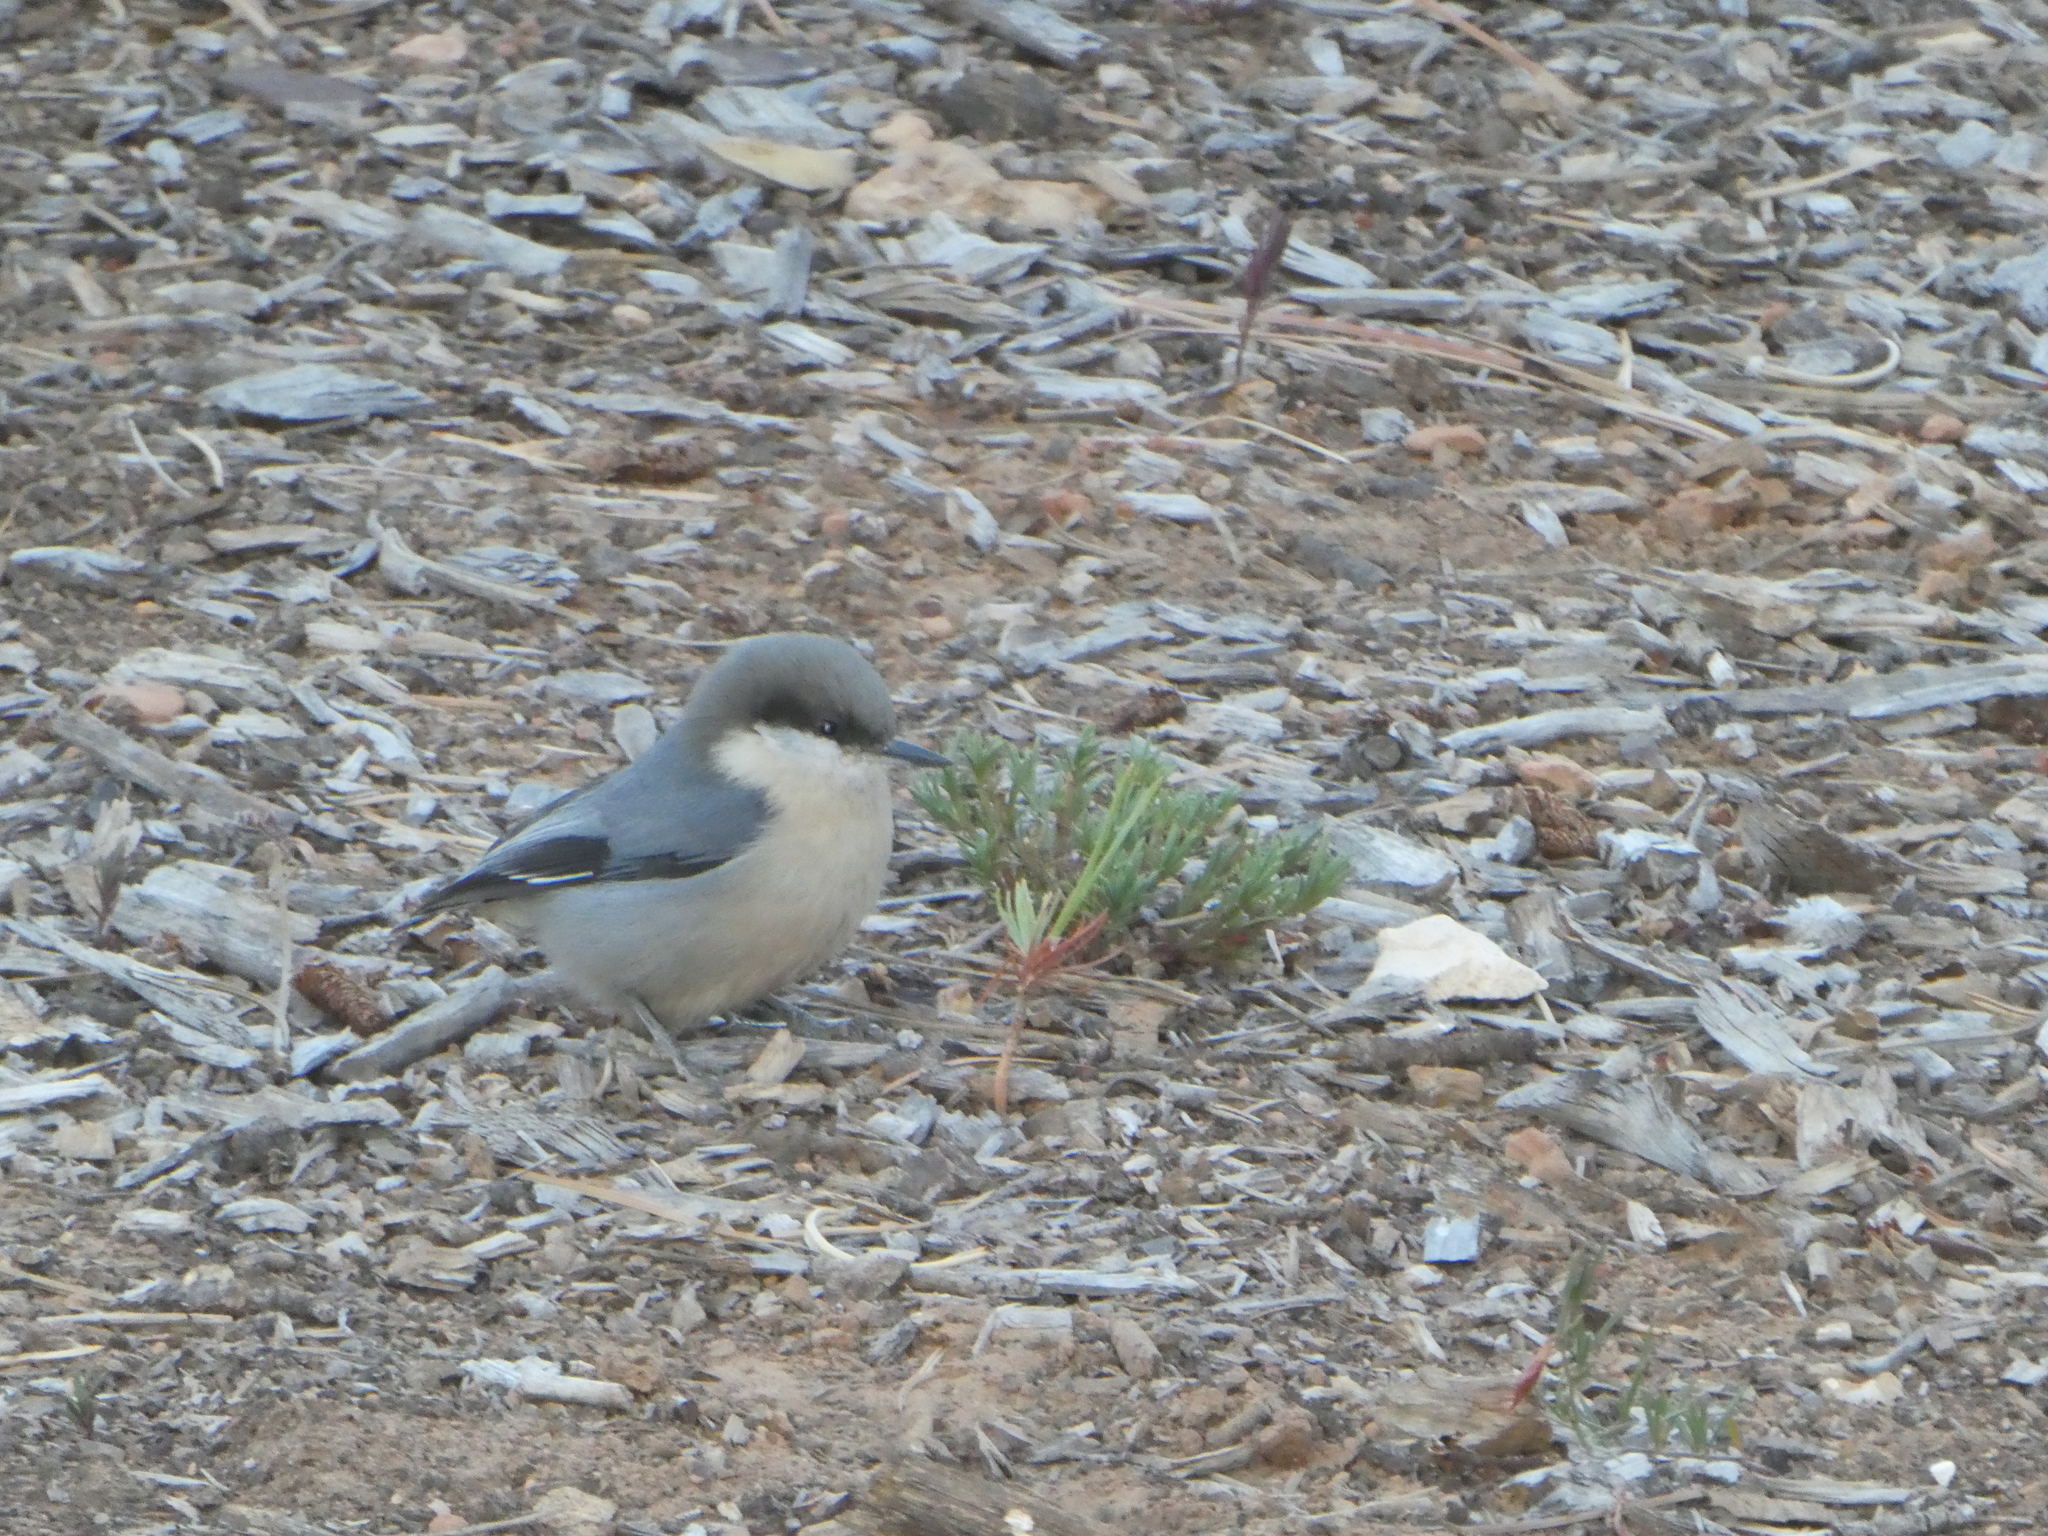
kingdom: Animalia
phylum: Chordata
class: Aves
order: Passeriformes
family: Sittidae
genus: Sitta
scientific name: Sitta pygmaea
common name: Pygmy nuthatch
